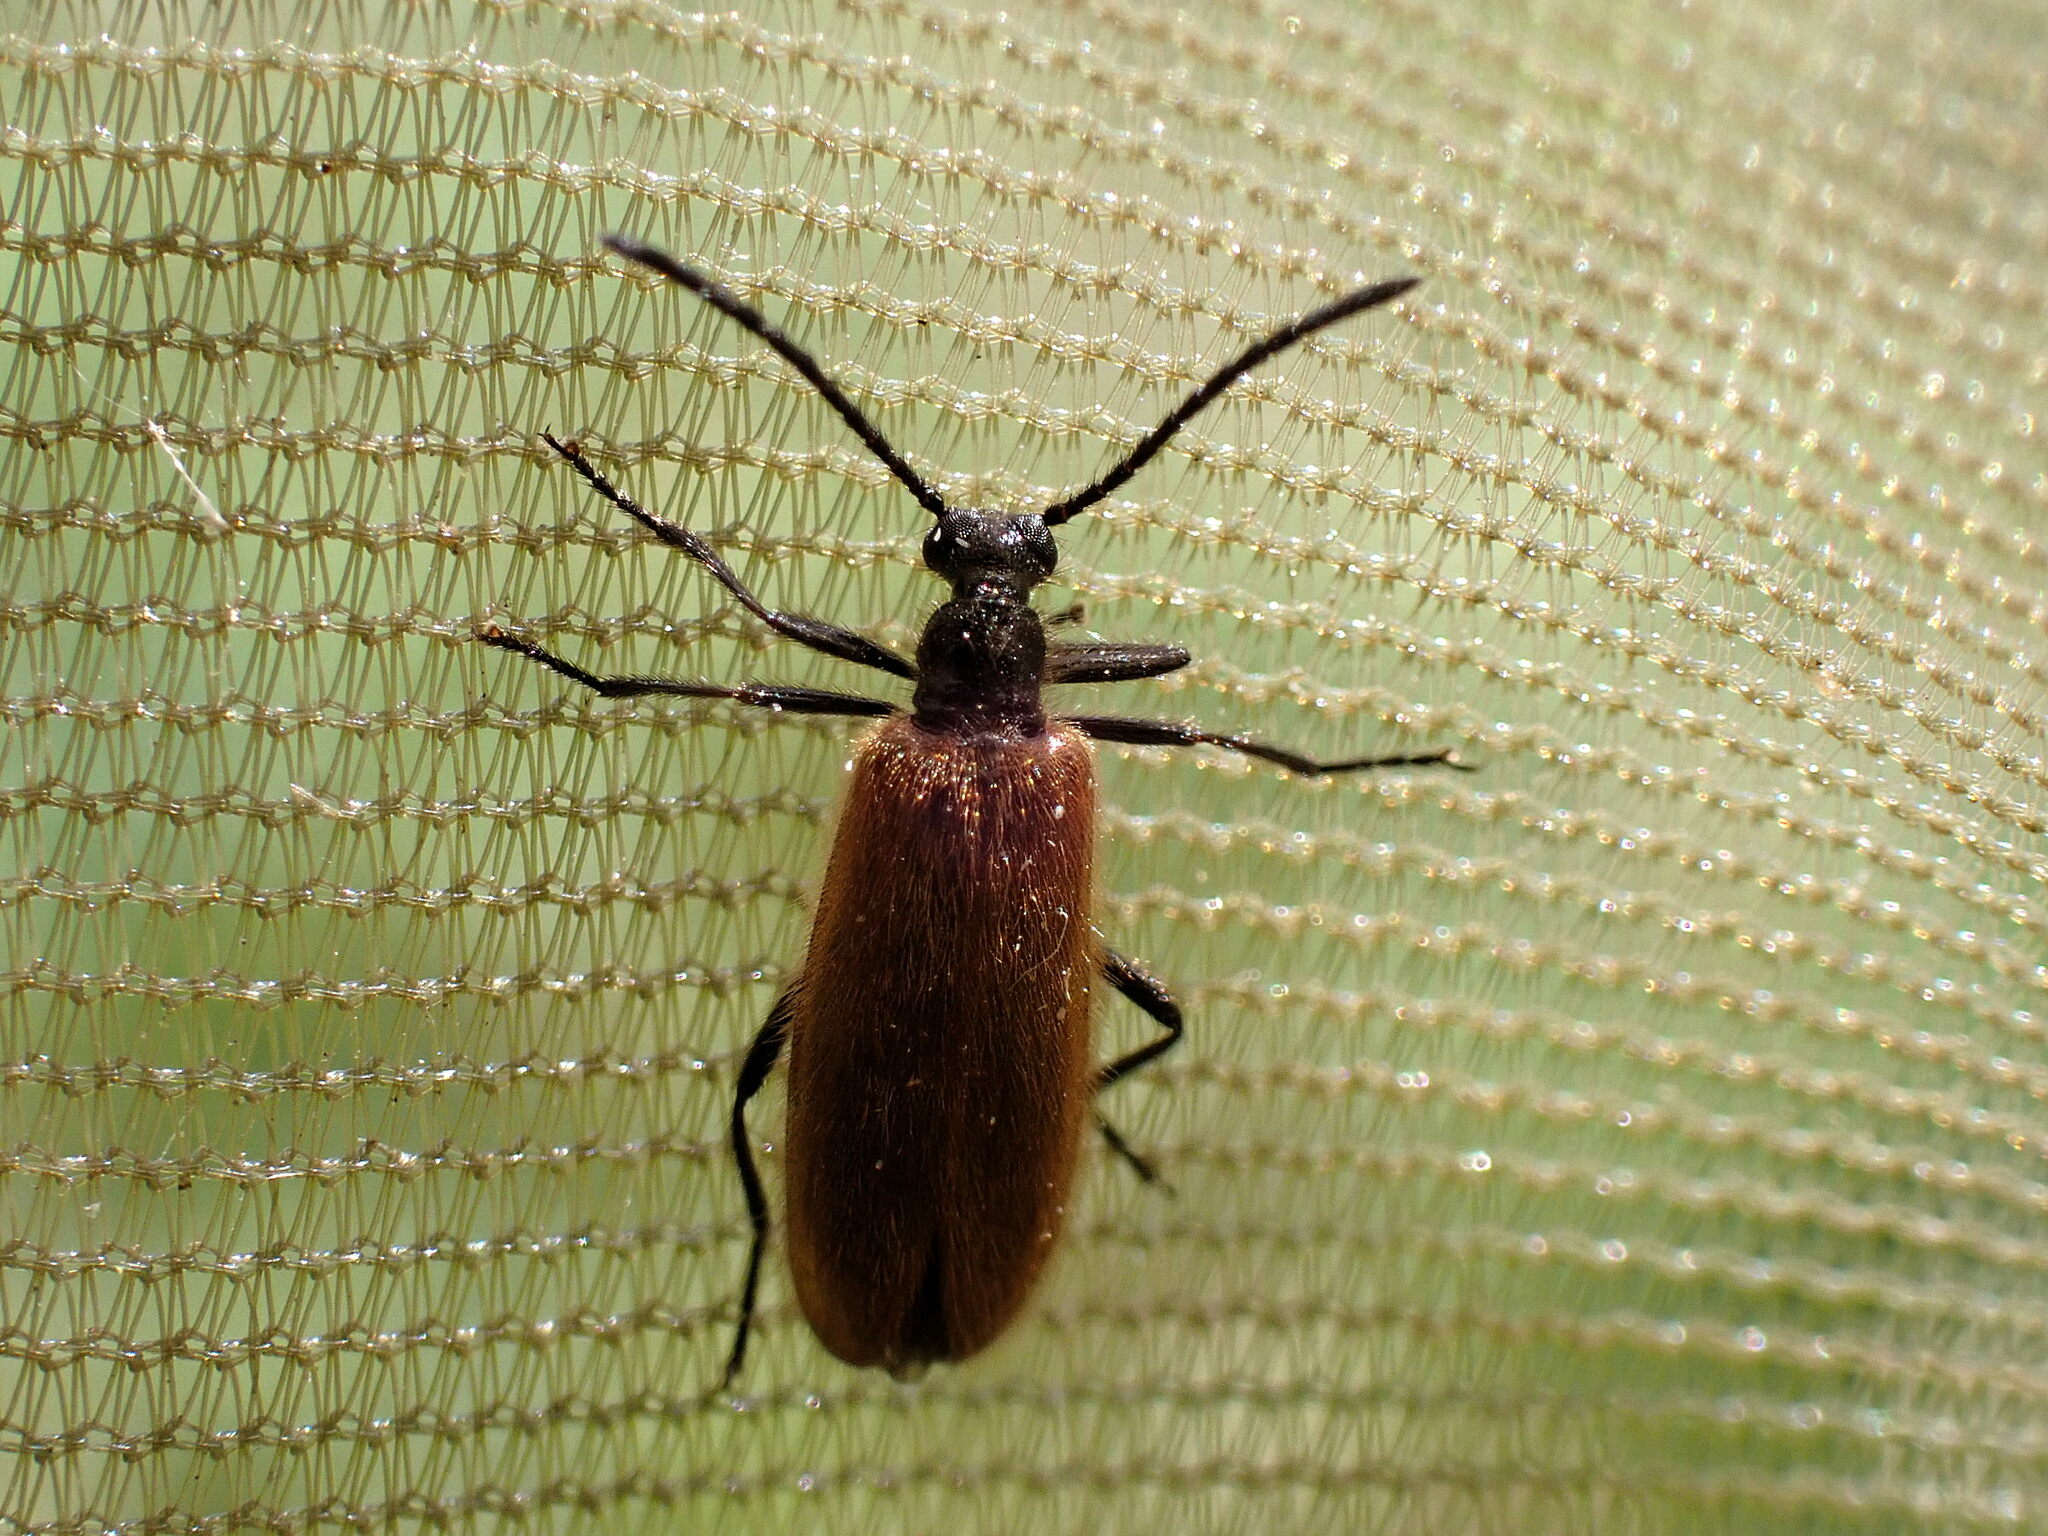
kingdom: Animalia
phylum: Arthropoda
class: Insecta
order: Coleoptera
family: Tenebrionidae
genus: Lagria
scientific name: Lagria hirta
